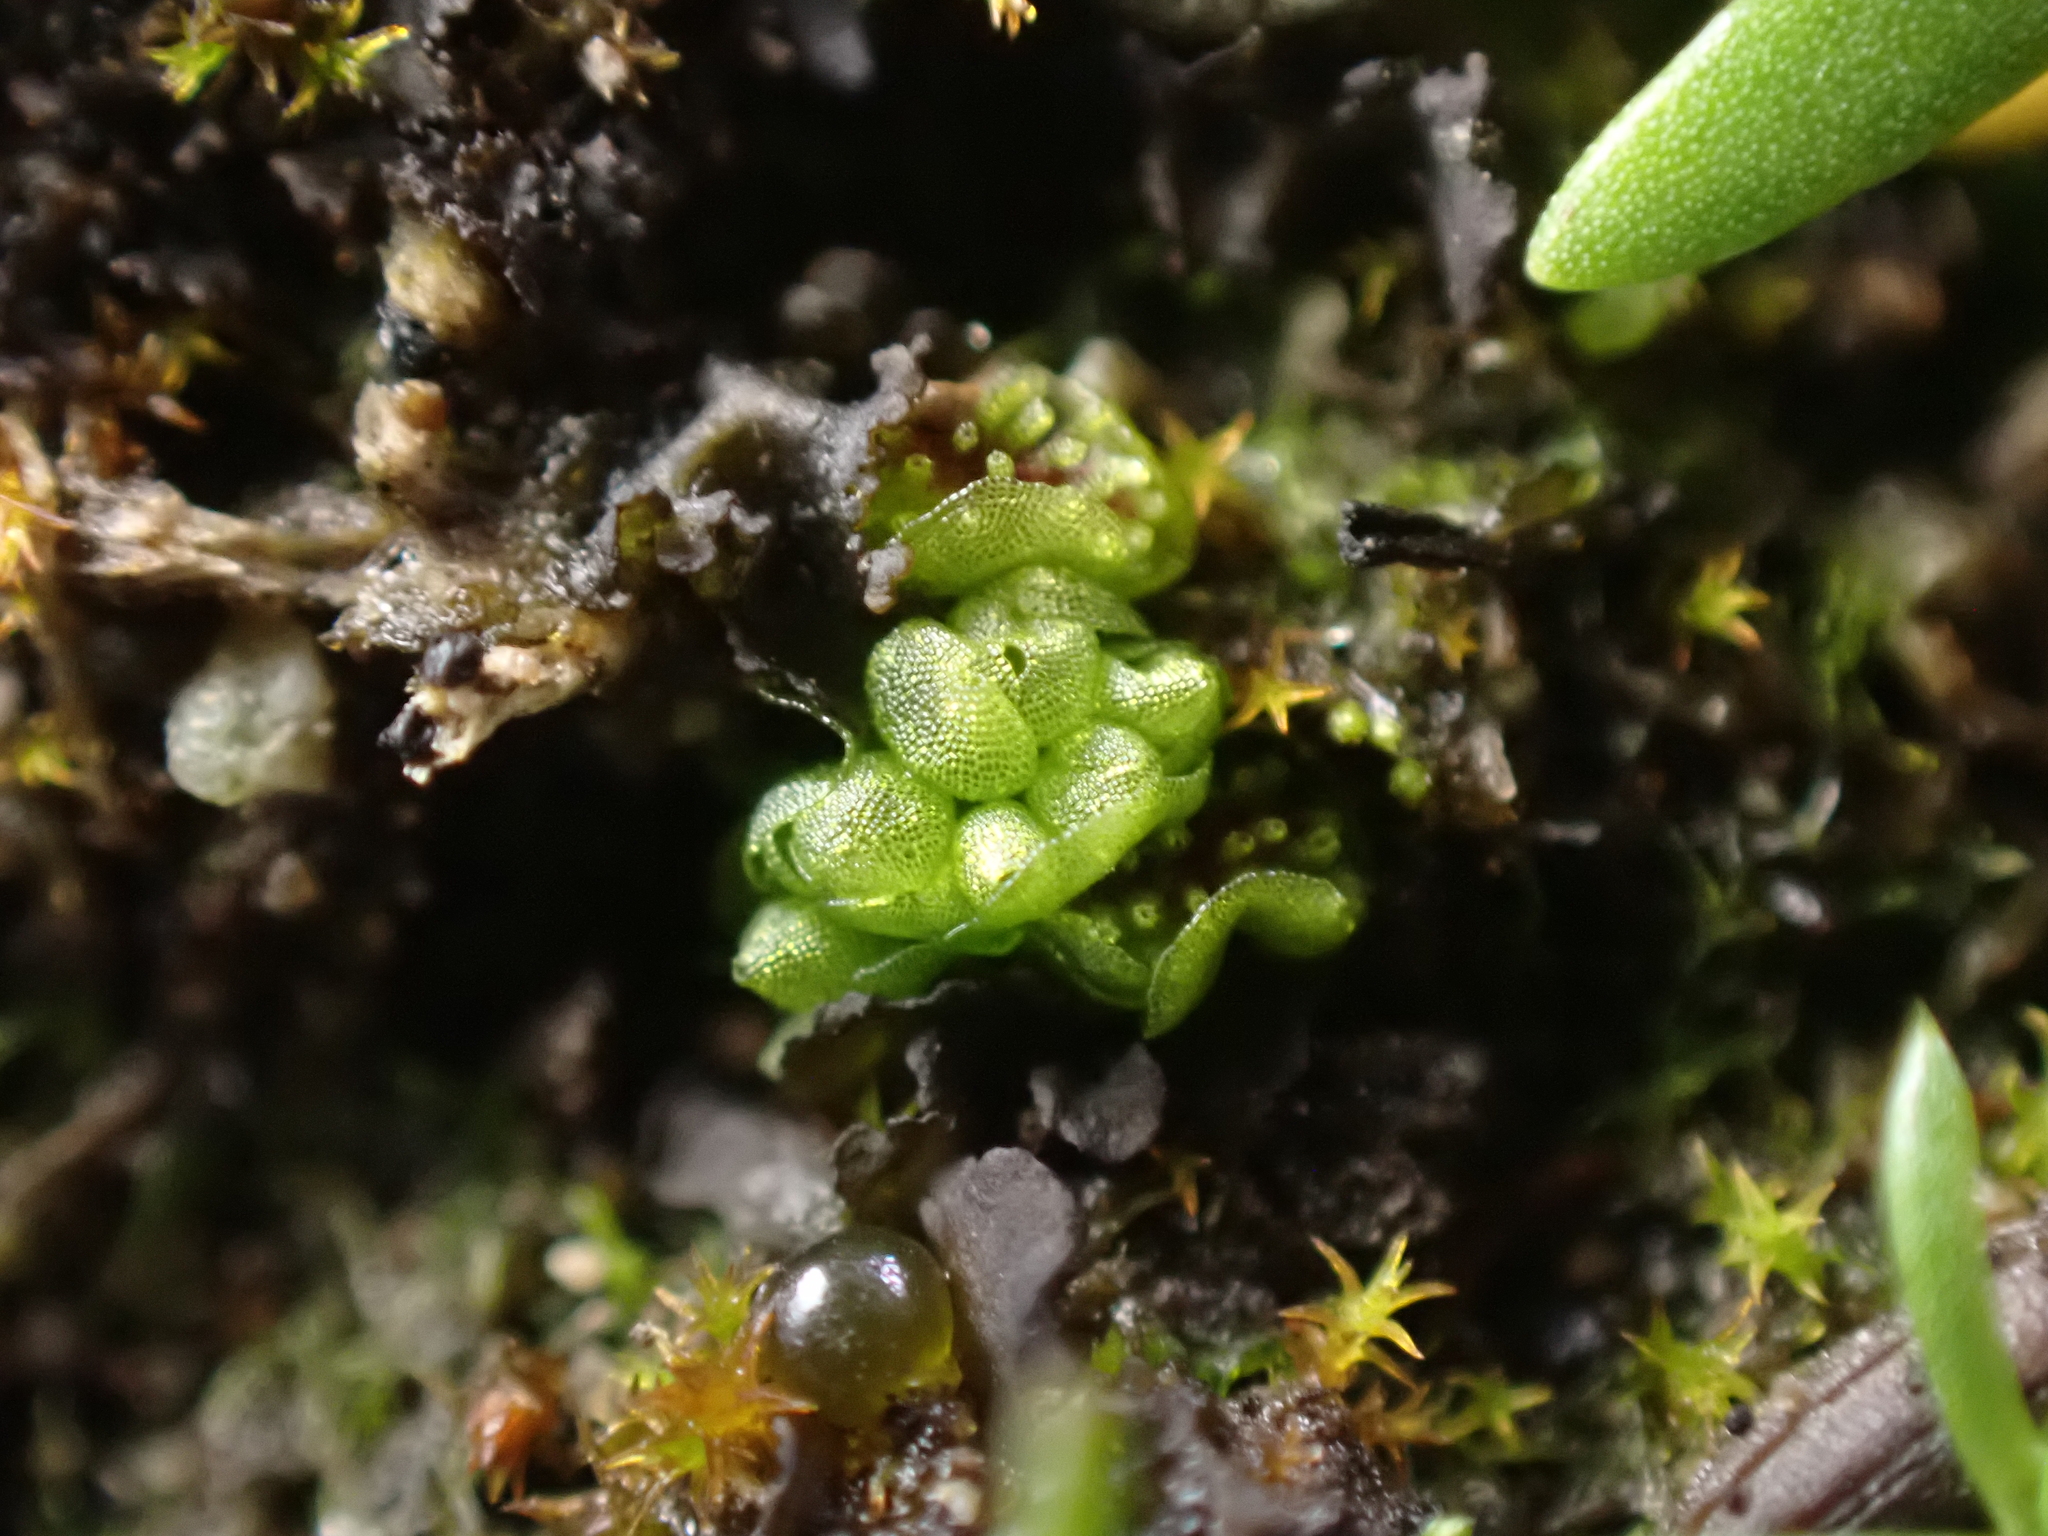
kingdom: Plantae
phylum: Marchantiophyta
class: Marchantiopsida
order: Sphaerocarpales
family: Sphaerocarpaceae
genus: Sphaerocarpos
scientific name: Sphaerocarpos texanus
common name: Texas balloonwort
